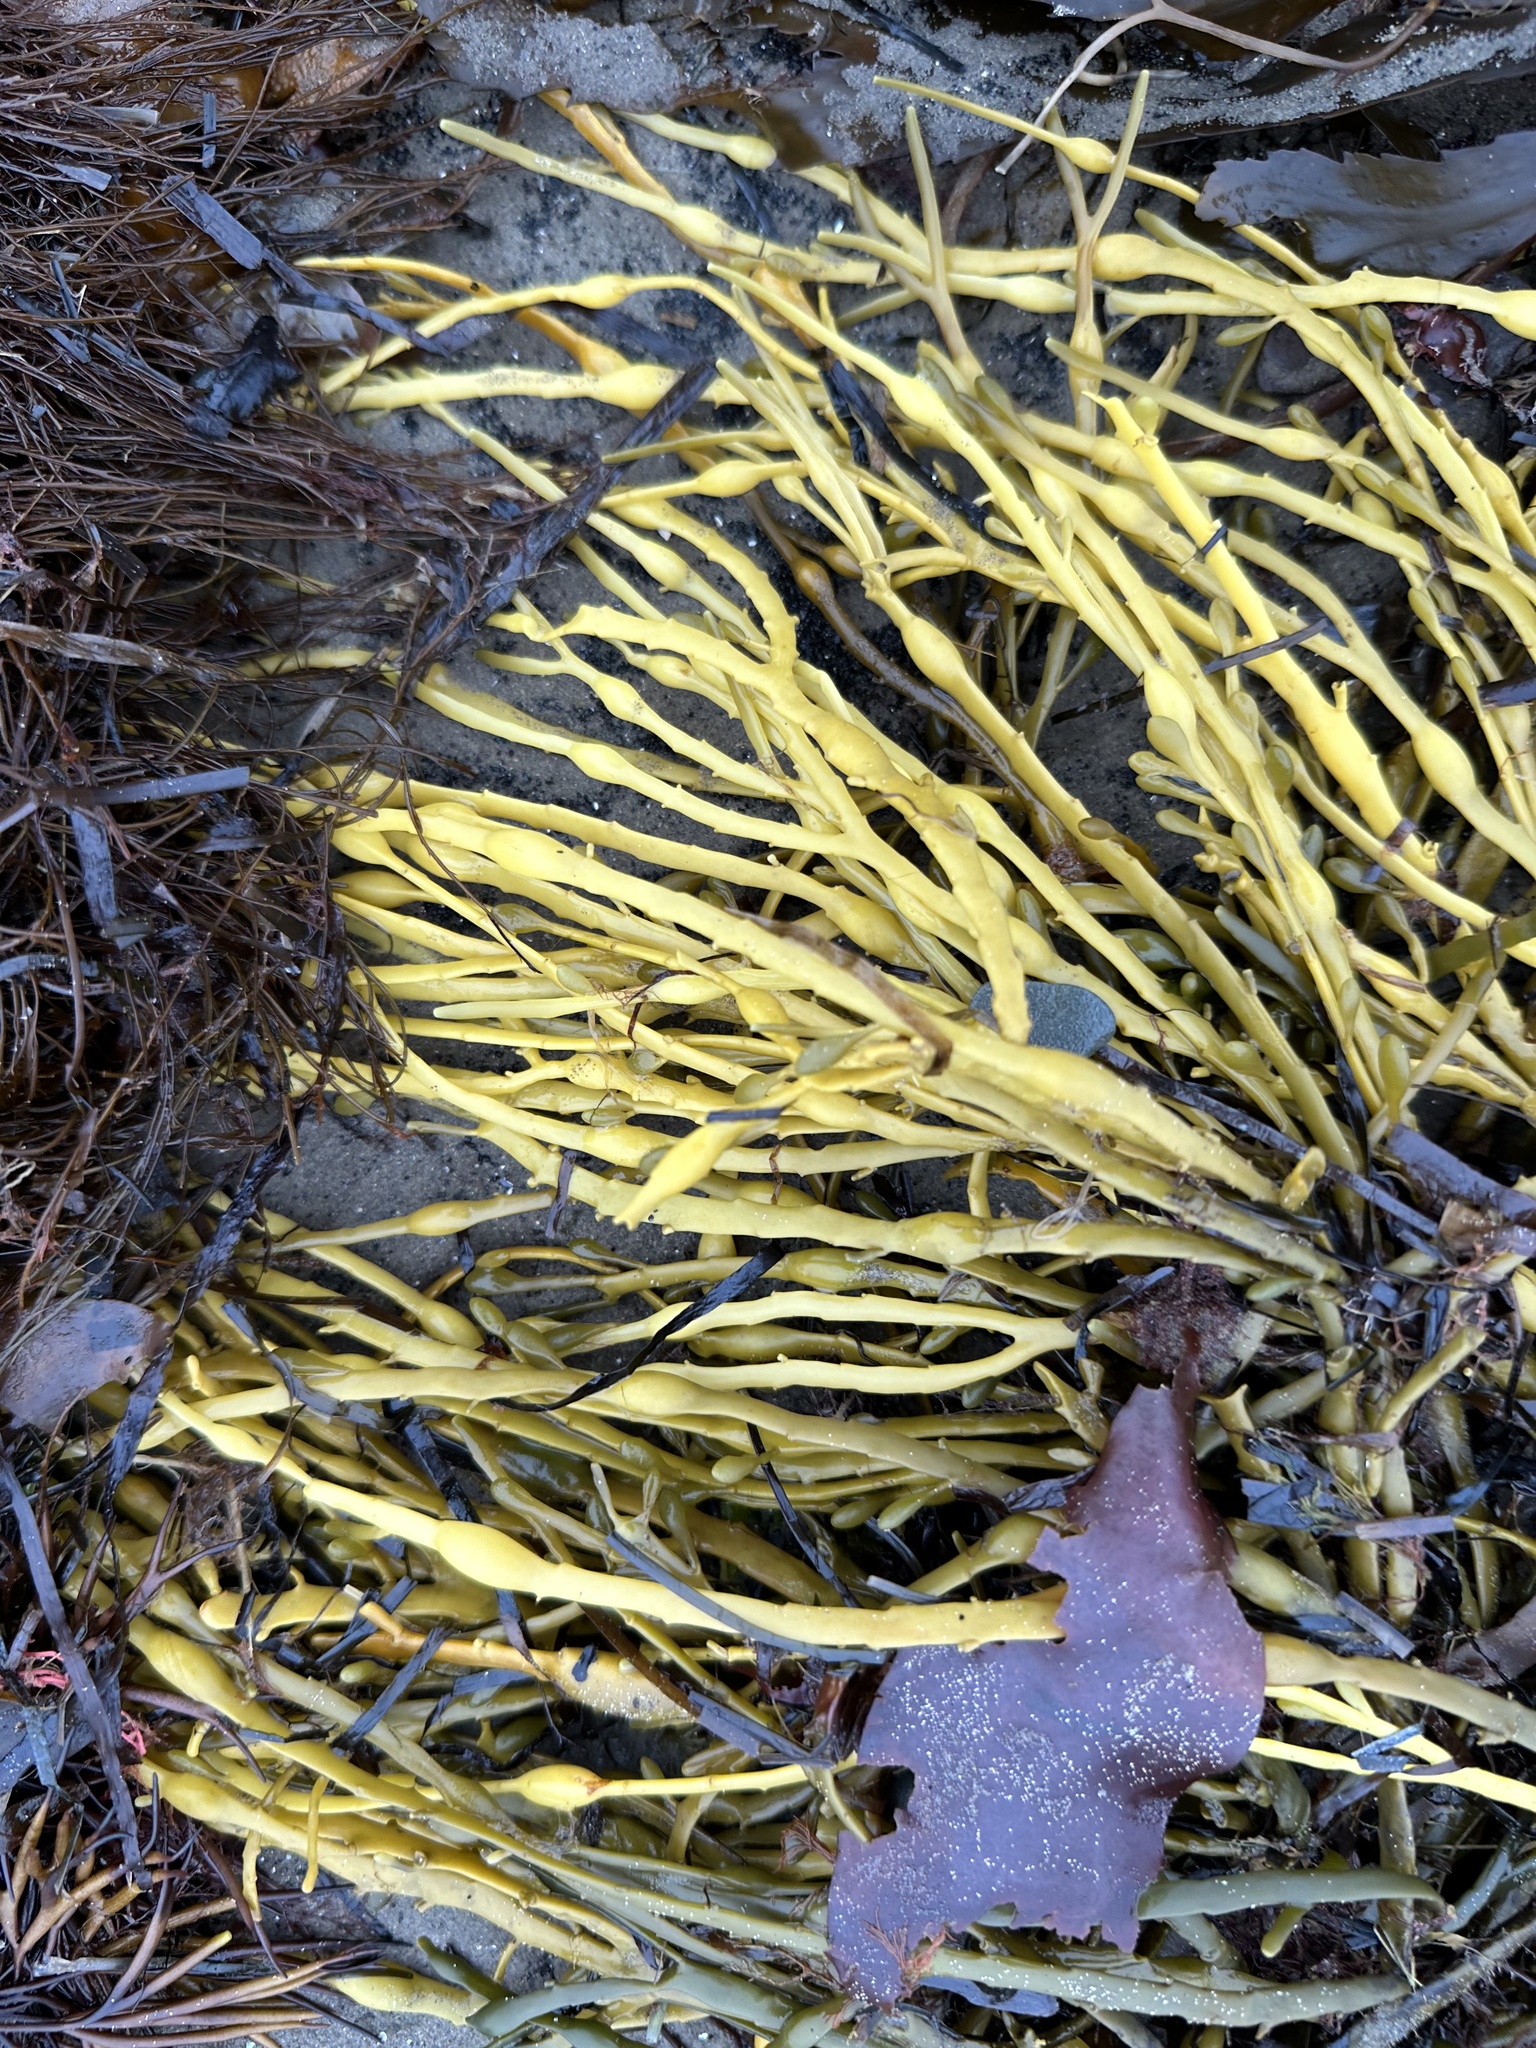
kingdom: Chromista
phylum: Ochrophyta
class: Phaeophyceae
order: Fucales
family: Fucaceae
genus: Ascophyllum
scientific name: Ascophyllum nodosum
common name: Knotted wrack
